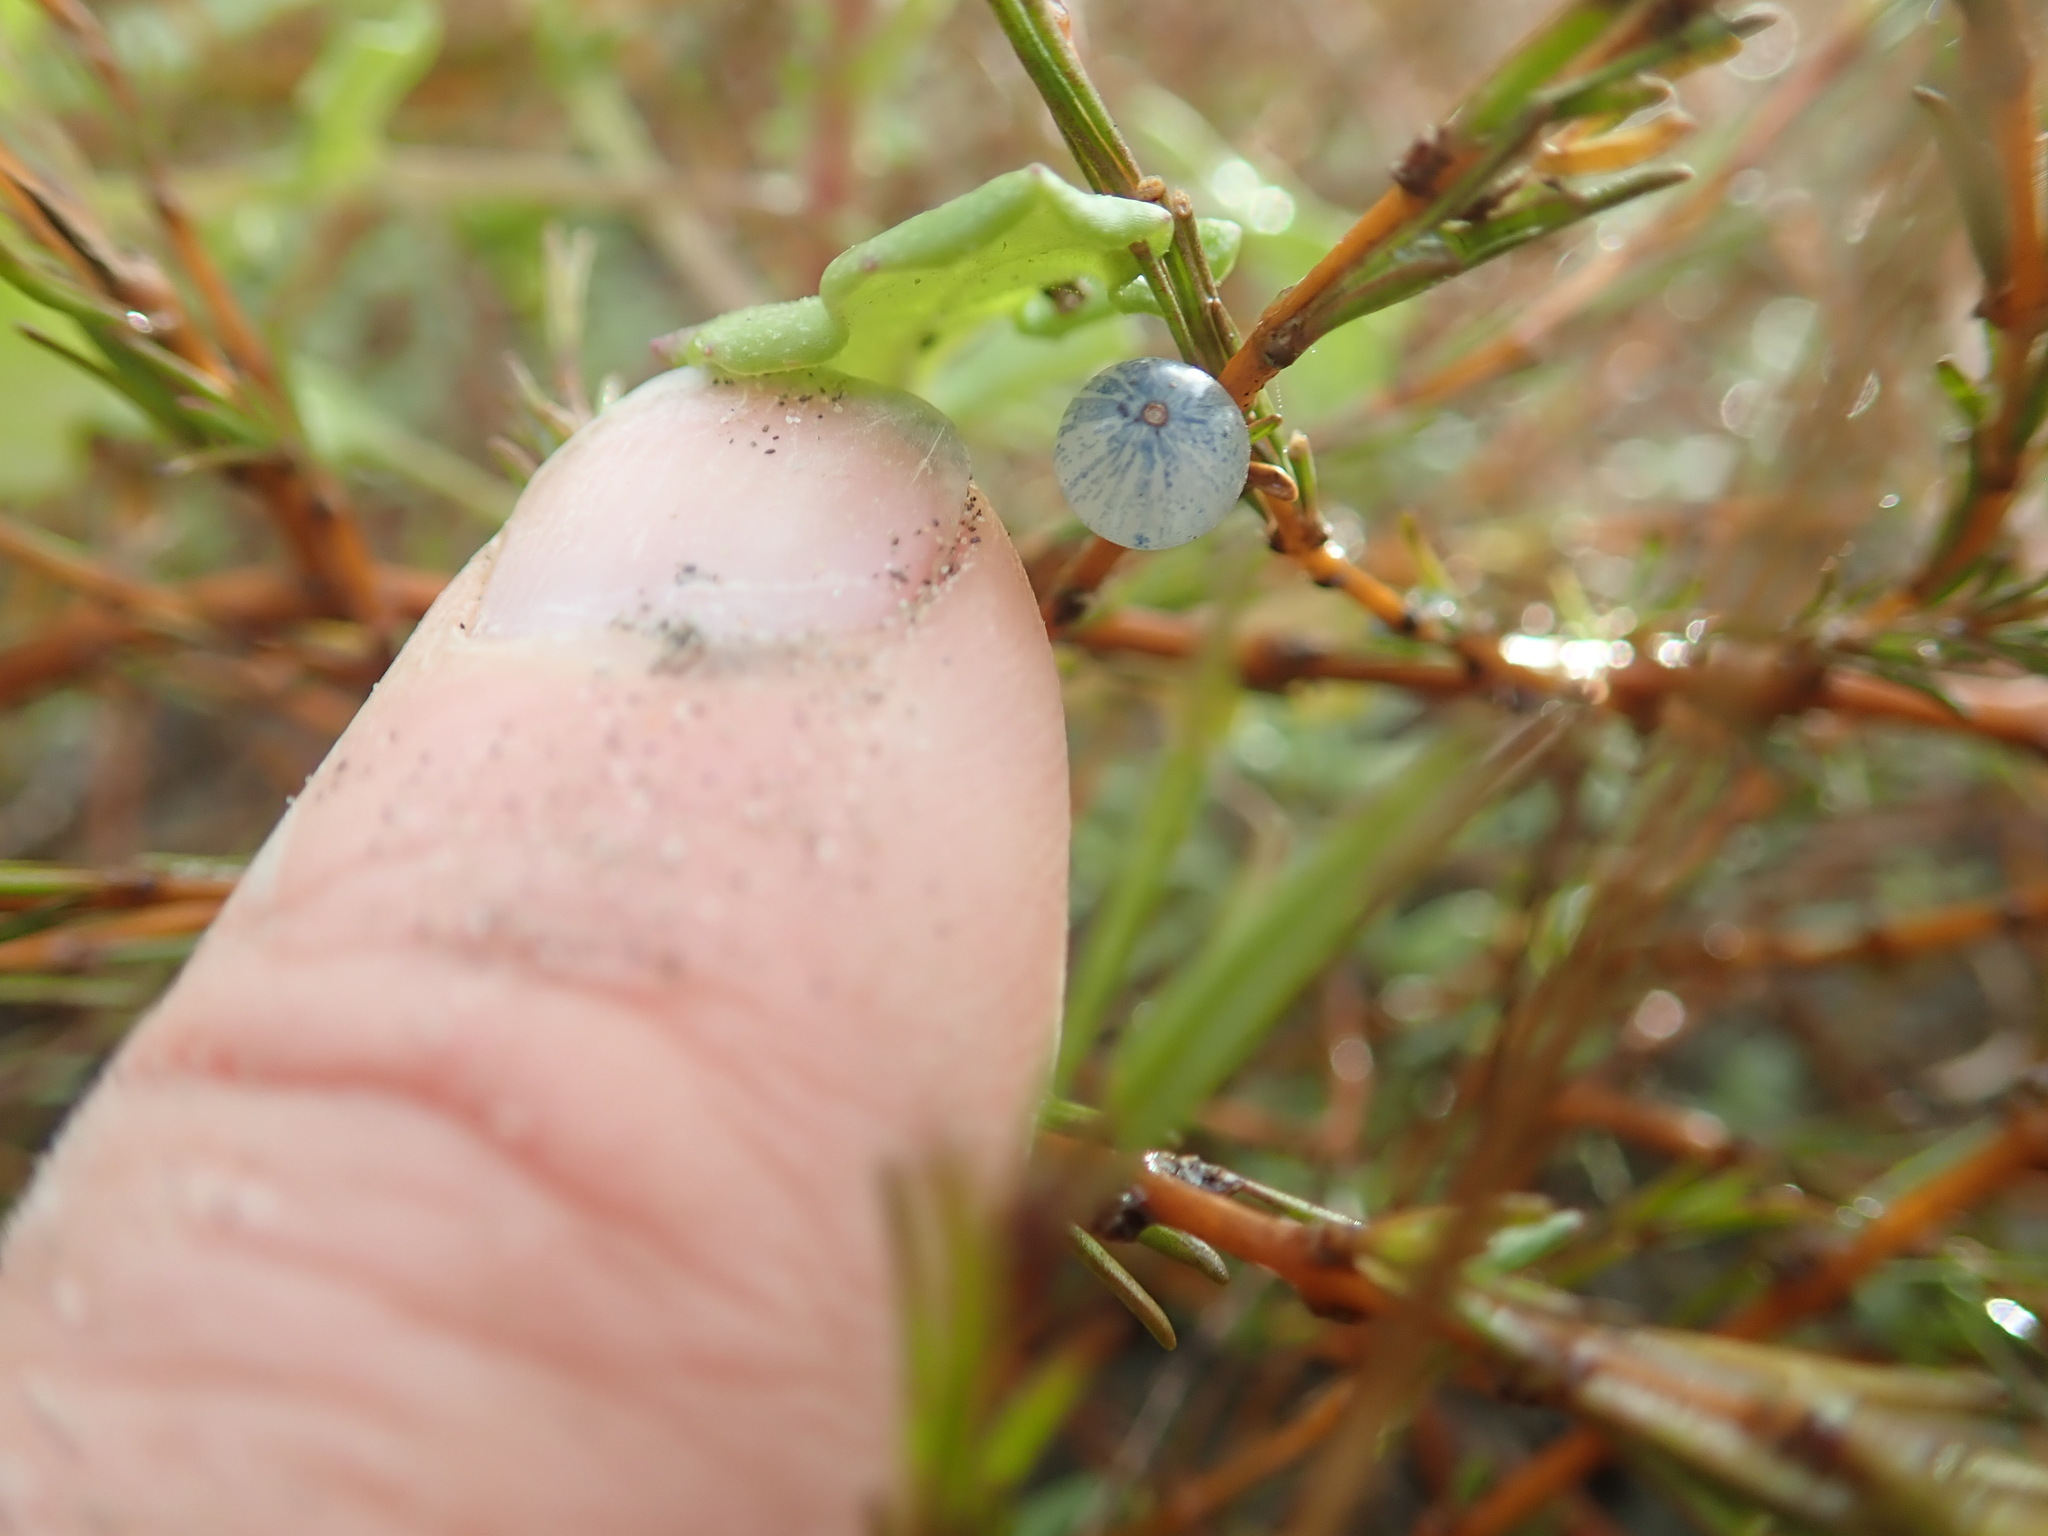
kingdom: Plantae
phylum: Tracheophyta
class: Magnoliopsida
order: Gentianales
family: Rubiaceae
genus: Coprosma
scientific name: Coprosma acerosa
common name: Sand coprosma
